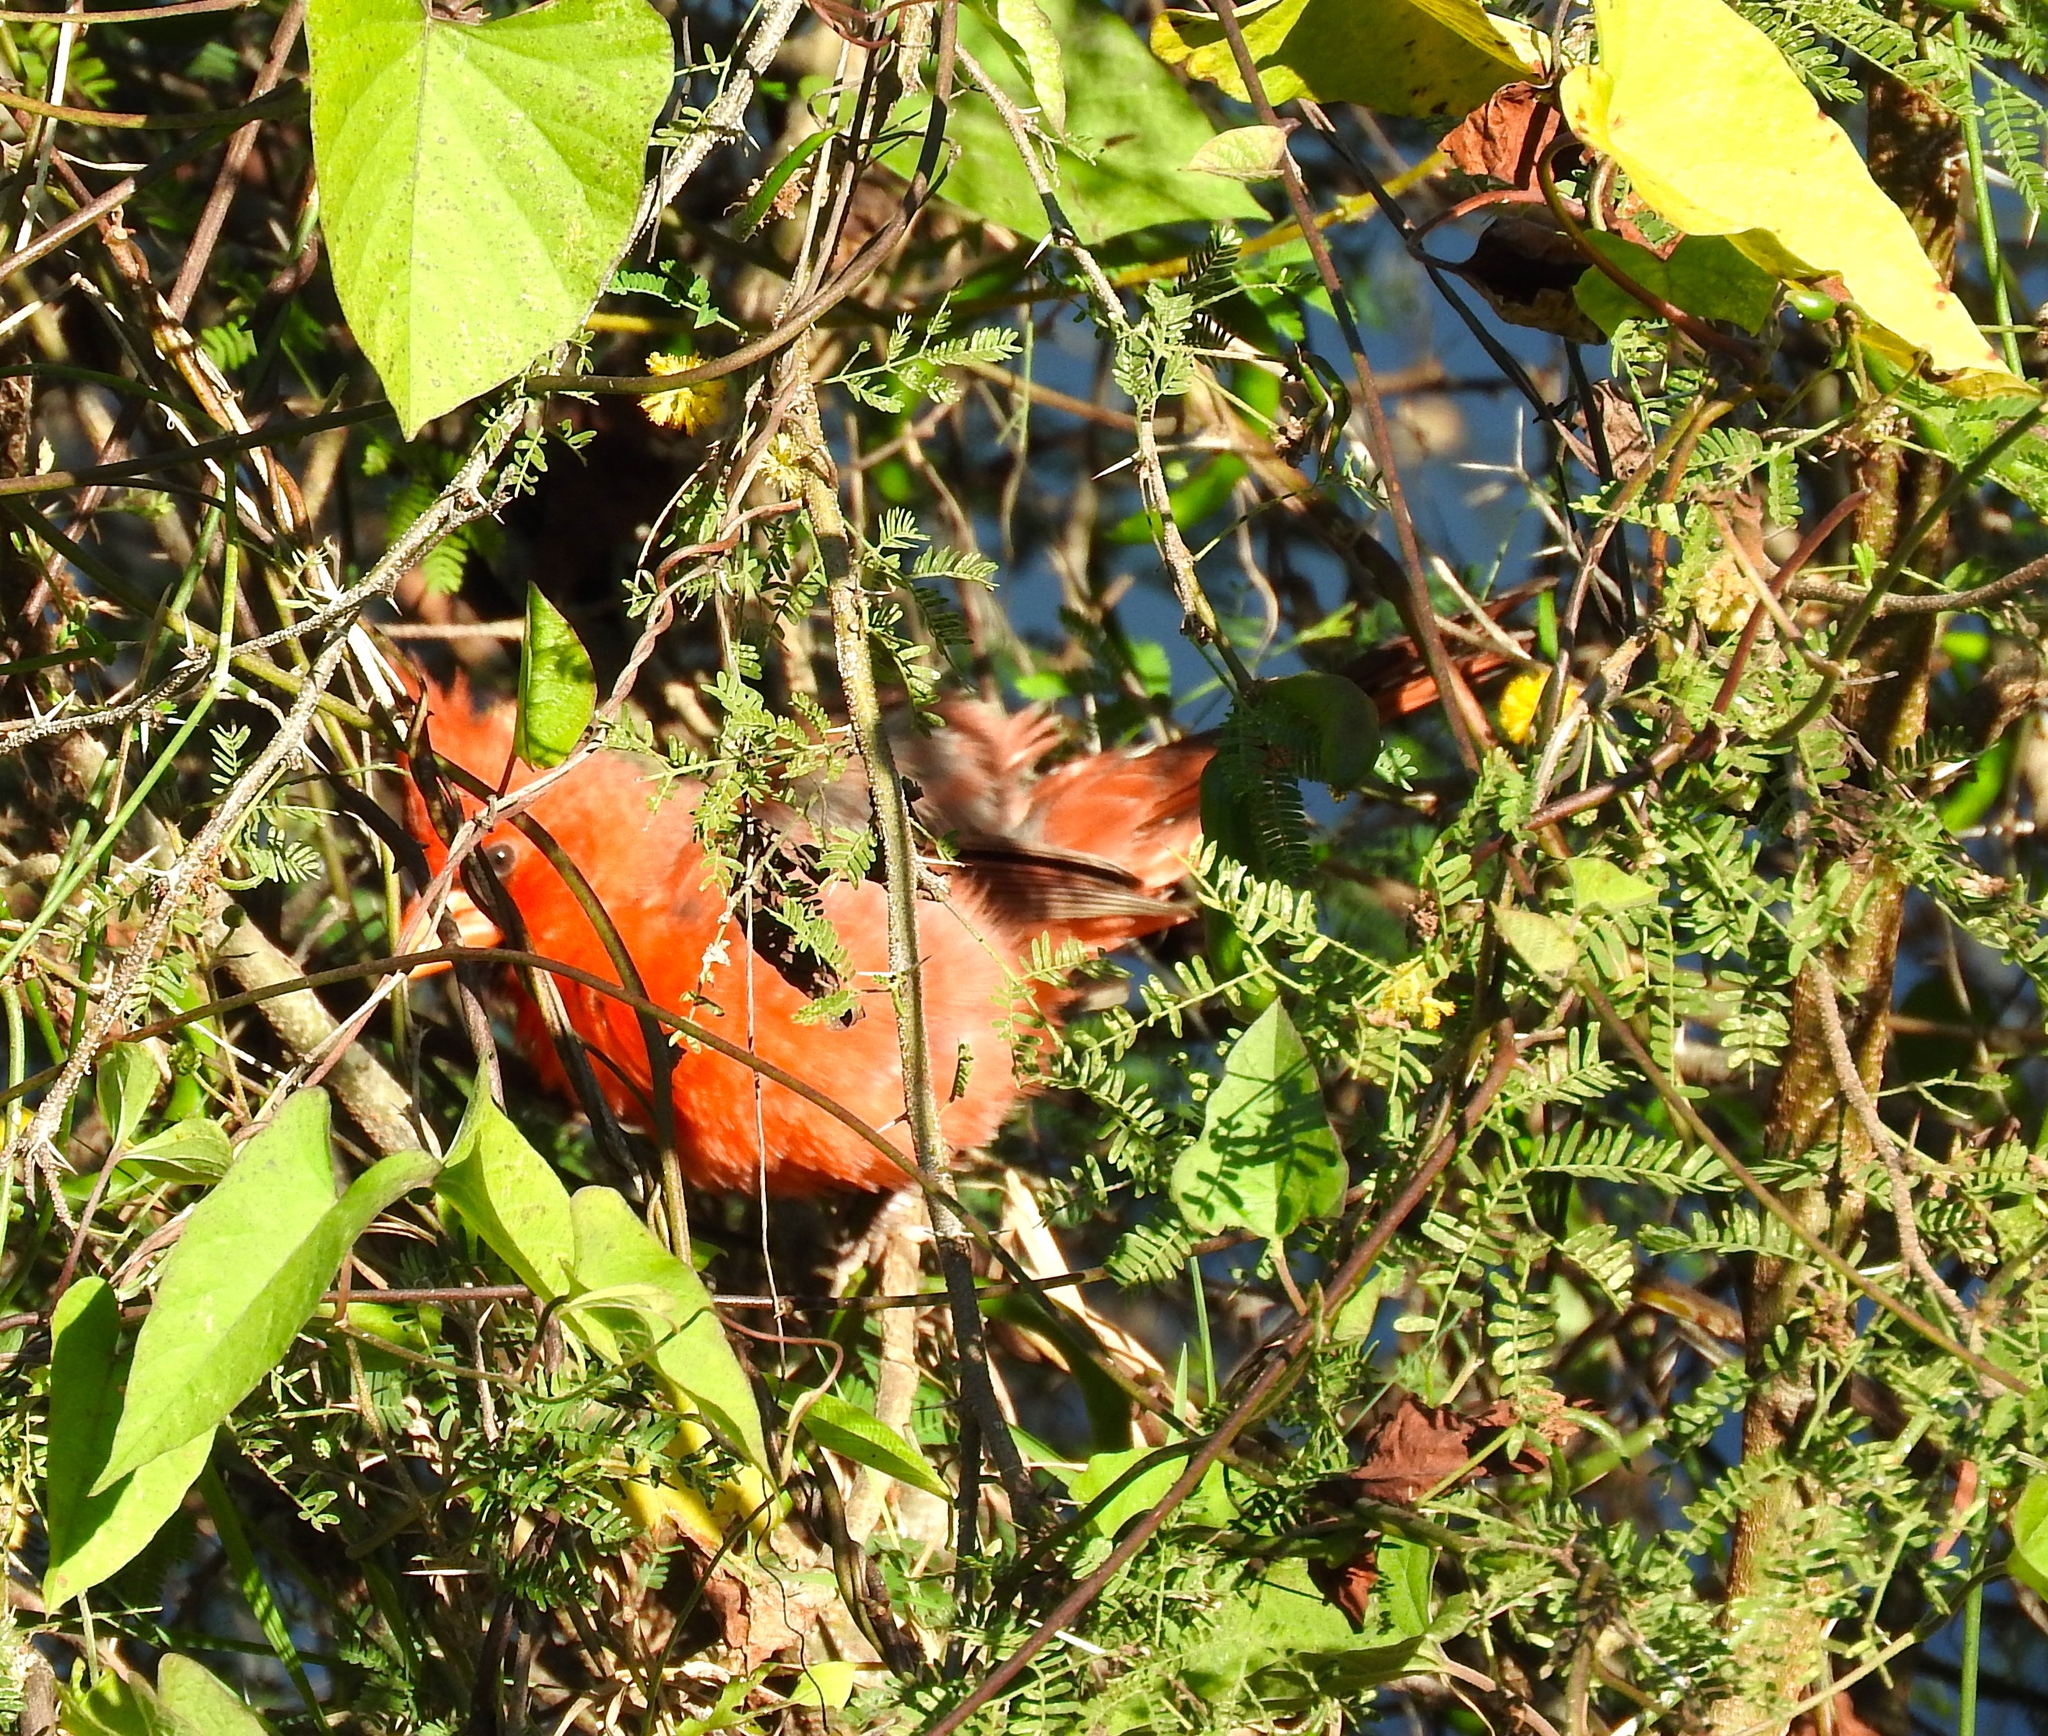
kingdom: Animalia
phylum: Chordata
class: Aves
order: Passeriformes
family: Cardinalidae
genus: Cardinalis
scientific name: Cardinalis cardinalis
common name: Northern cardinal
